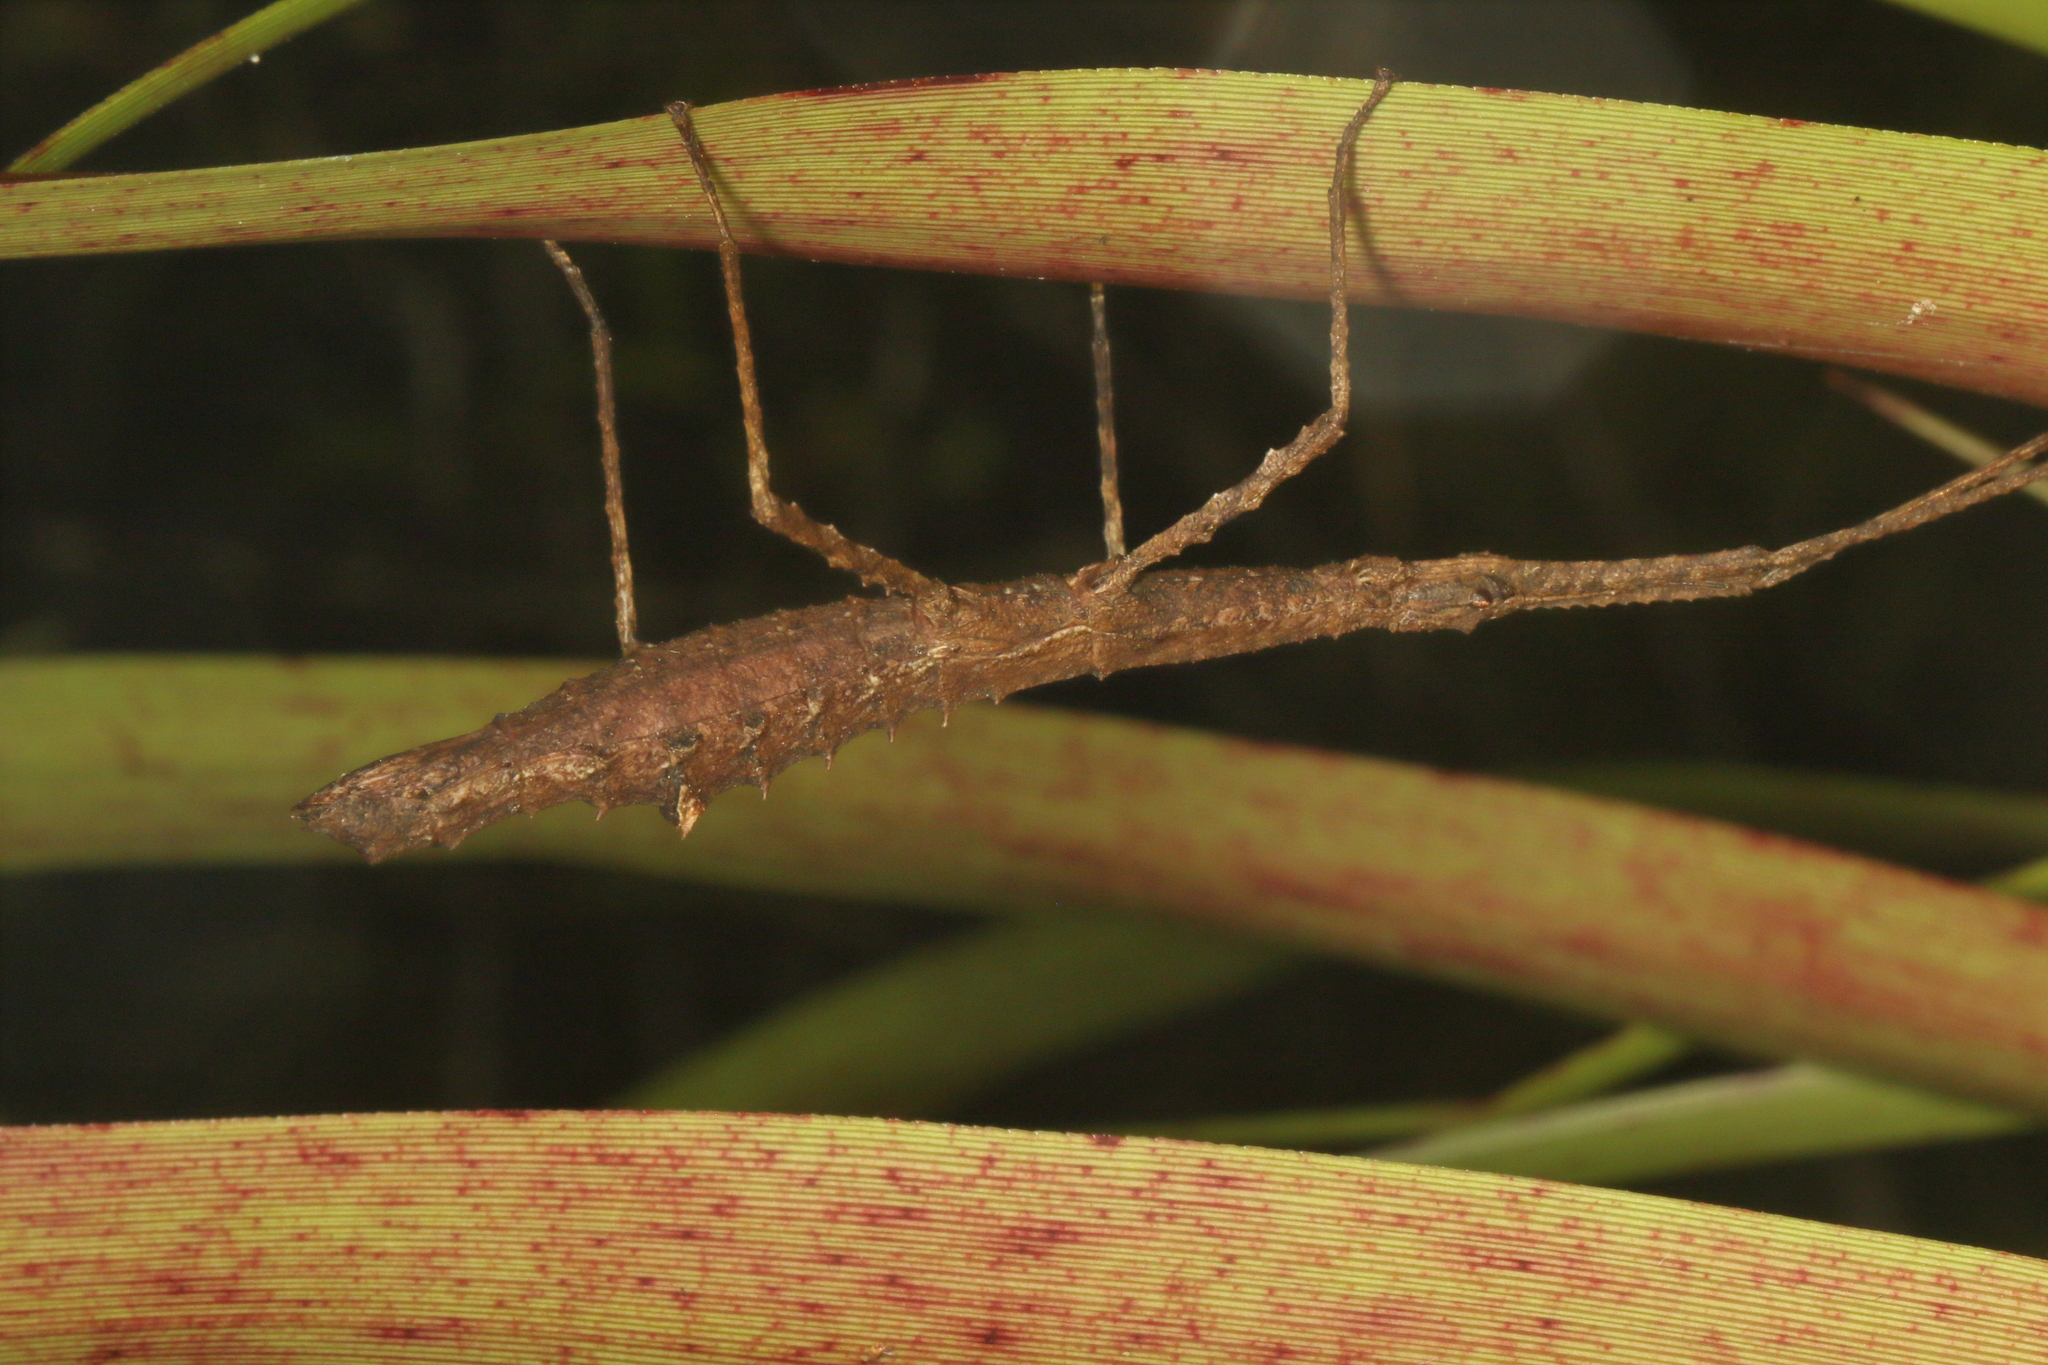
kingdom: Animalia
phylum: Arthropoda
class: Insecta
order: Phasmida
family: Phasmatidae
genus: Spinotectarchus
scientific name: Spinotectarchus acornutus
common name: The spiny ridge-backed stick insect
